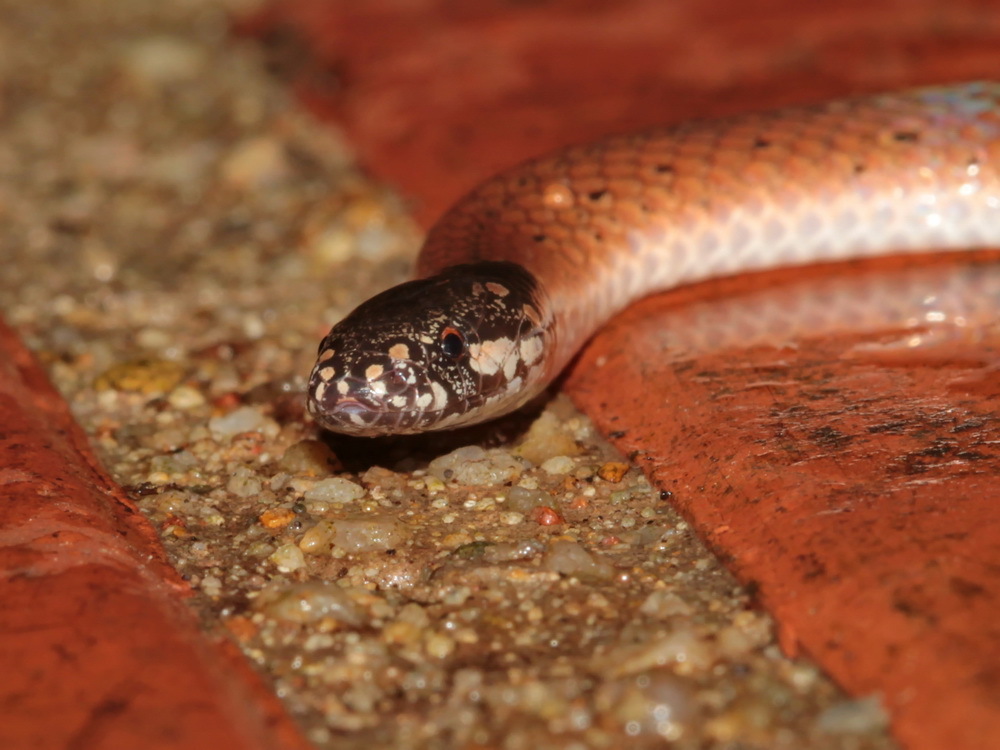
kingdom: Animalia
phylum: Chordata
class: Squamata
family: Elapidae
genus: Calliophis
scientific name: Calliophis maculiceps
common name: Speckled coral snake
